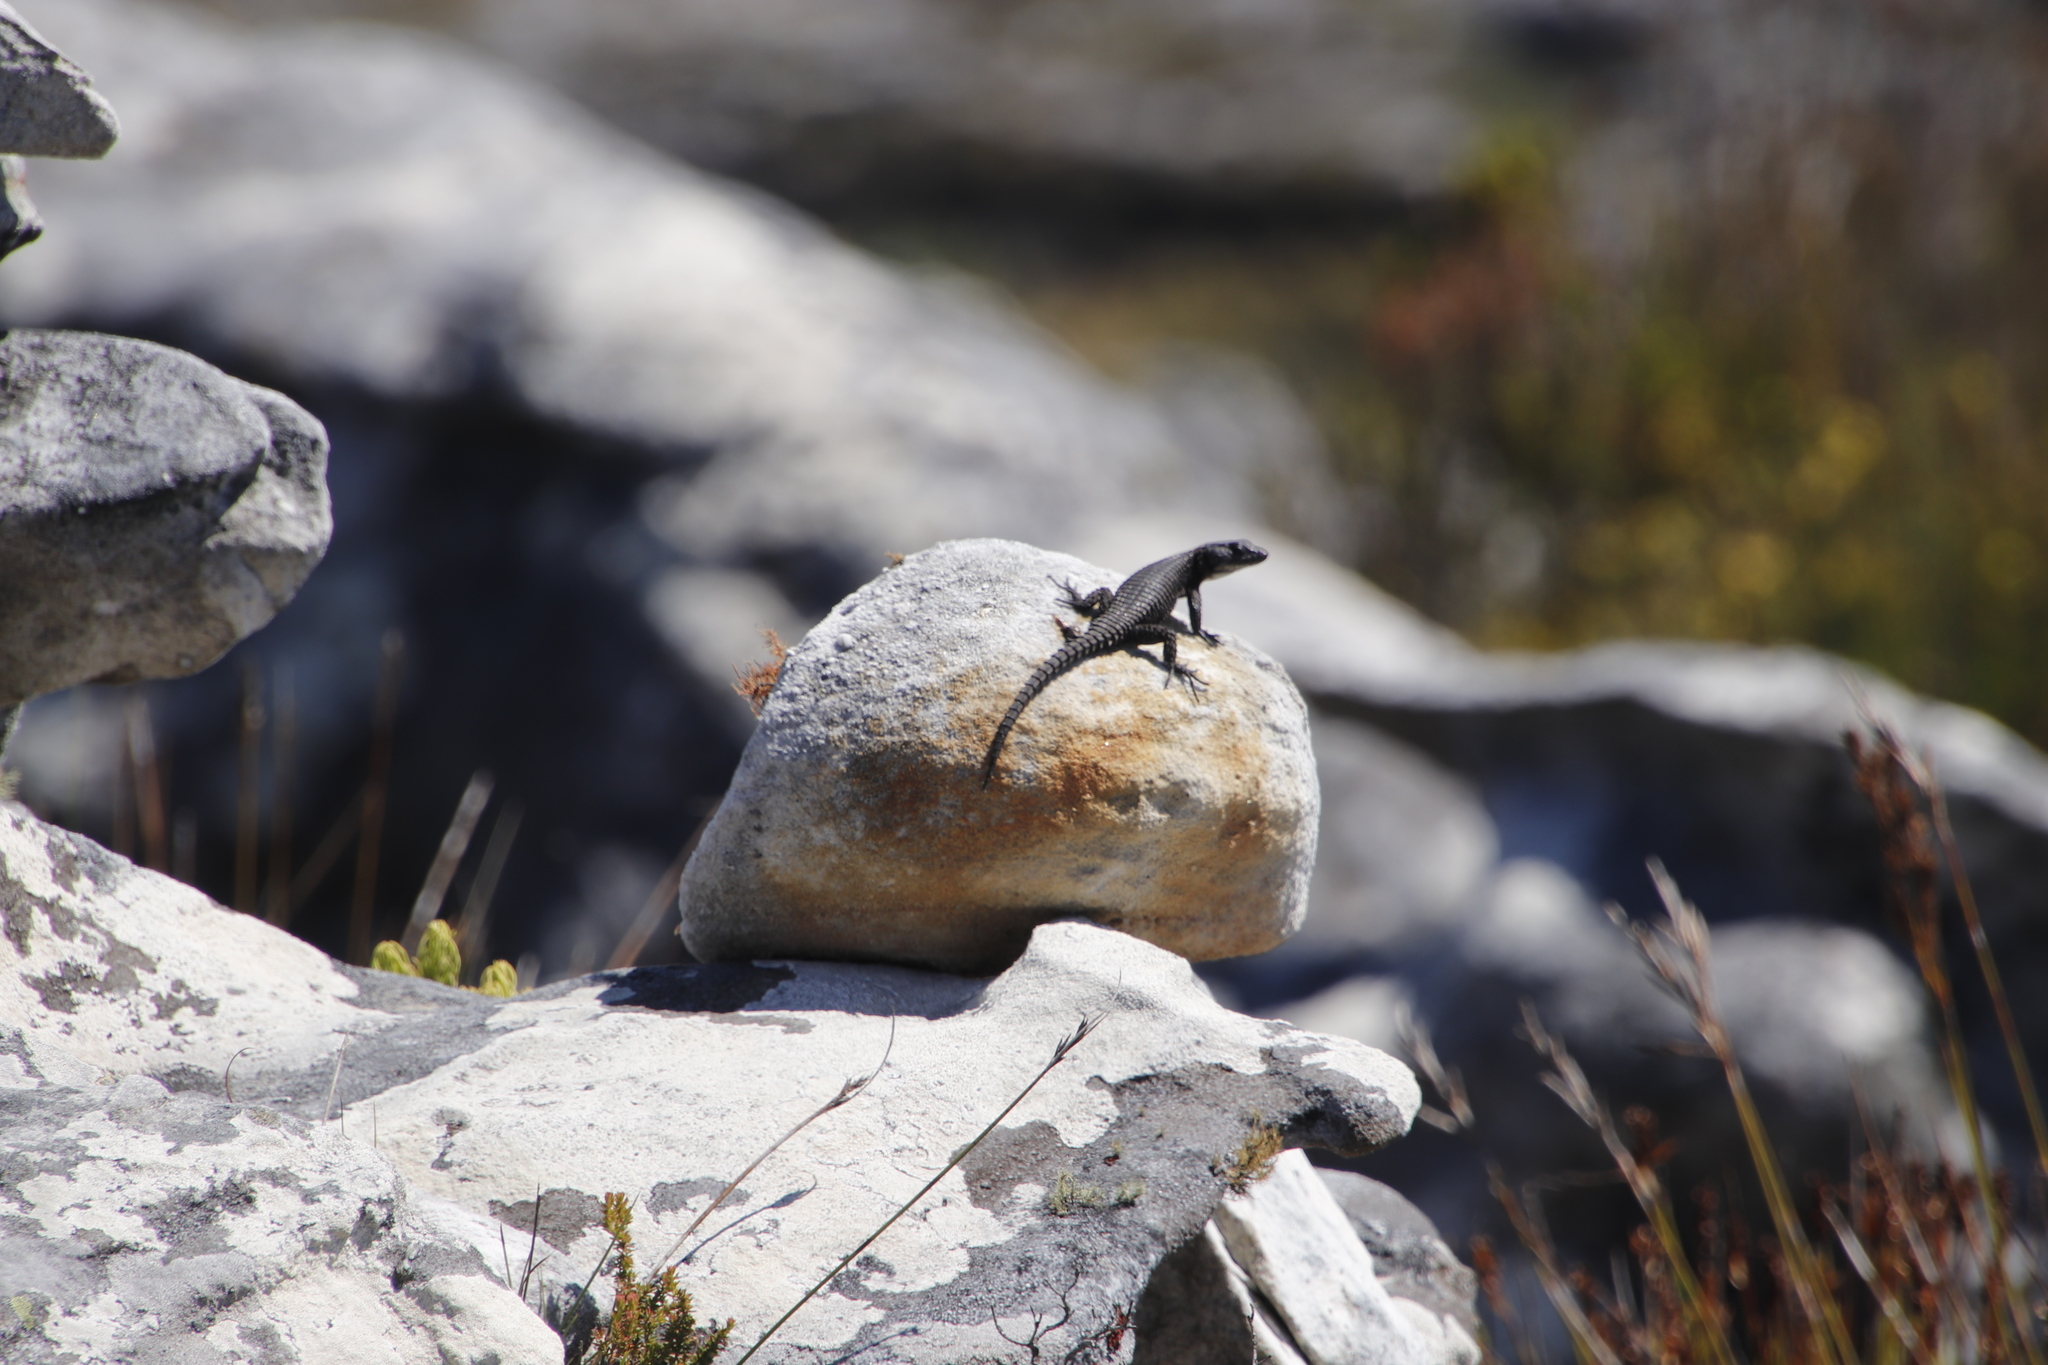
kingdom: Animalia
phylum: Chordata
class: Squamata
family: Cordylidae
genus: Cordylus
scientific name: Cordylus niger
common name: Black girdled lizard
